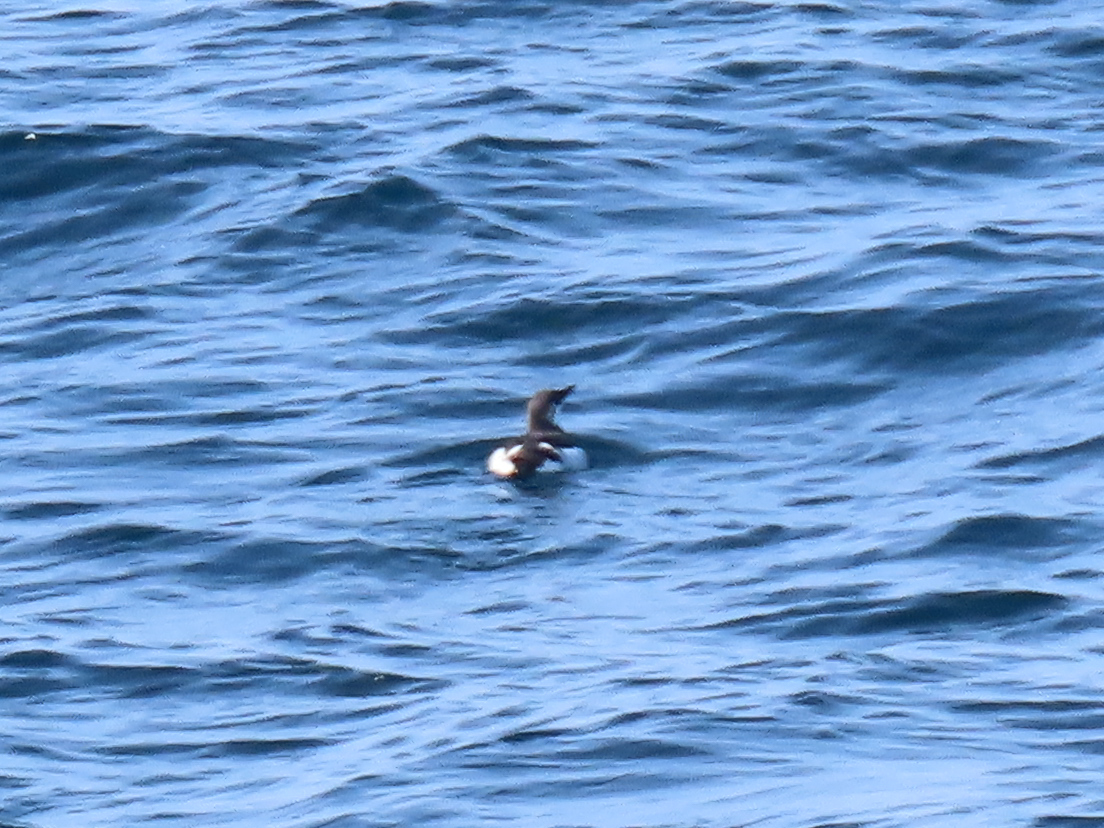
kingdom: Animalia
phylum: Chordata
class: Aves
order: Charadriiformes
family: Alcidae
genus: Uria
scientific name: Uria aalge
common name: Common murre
